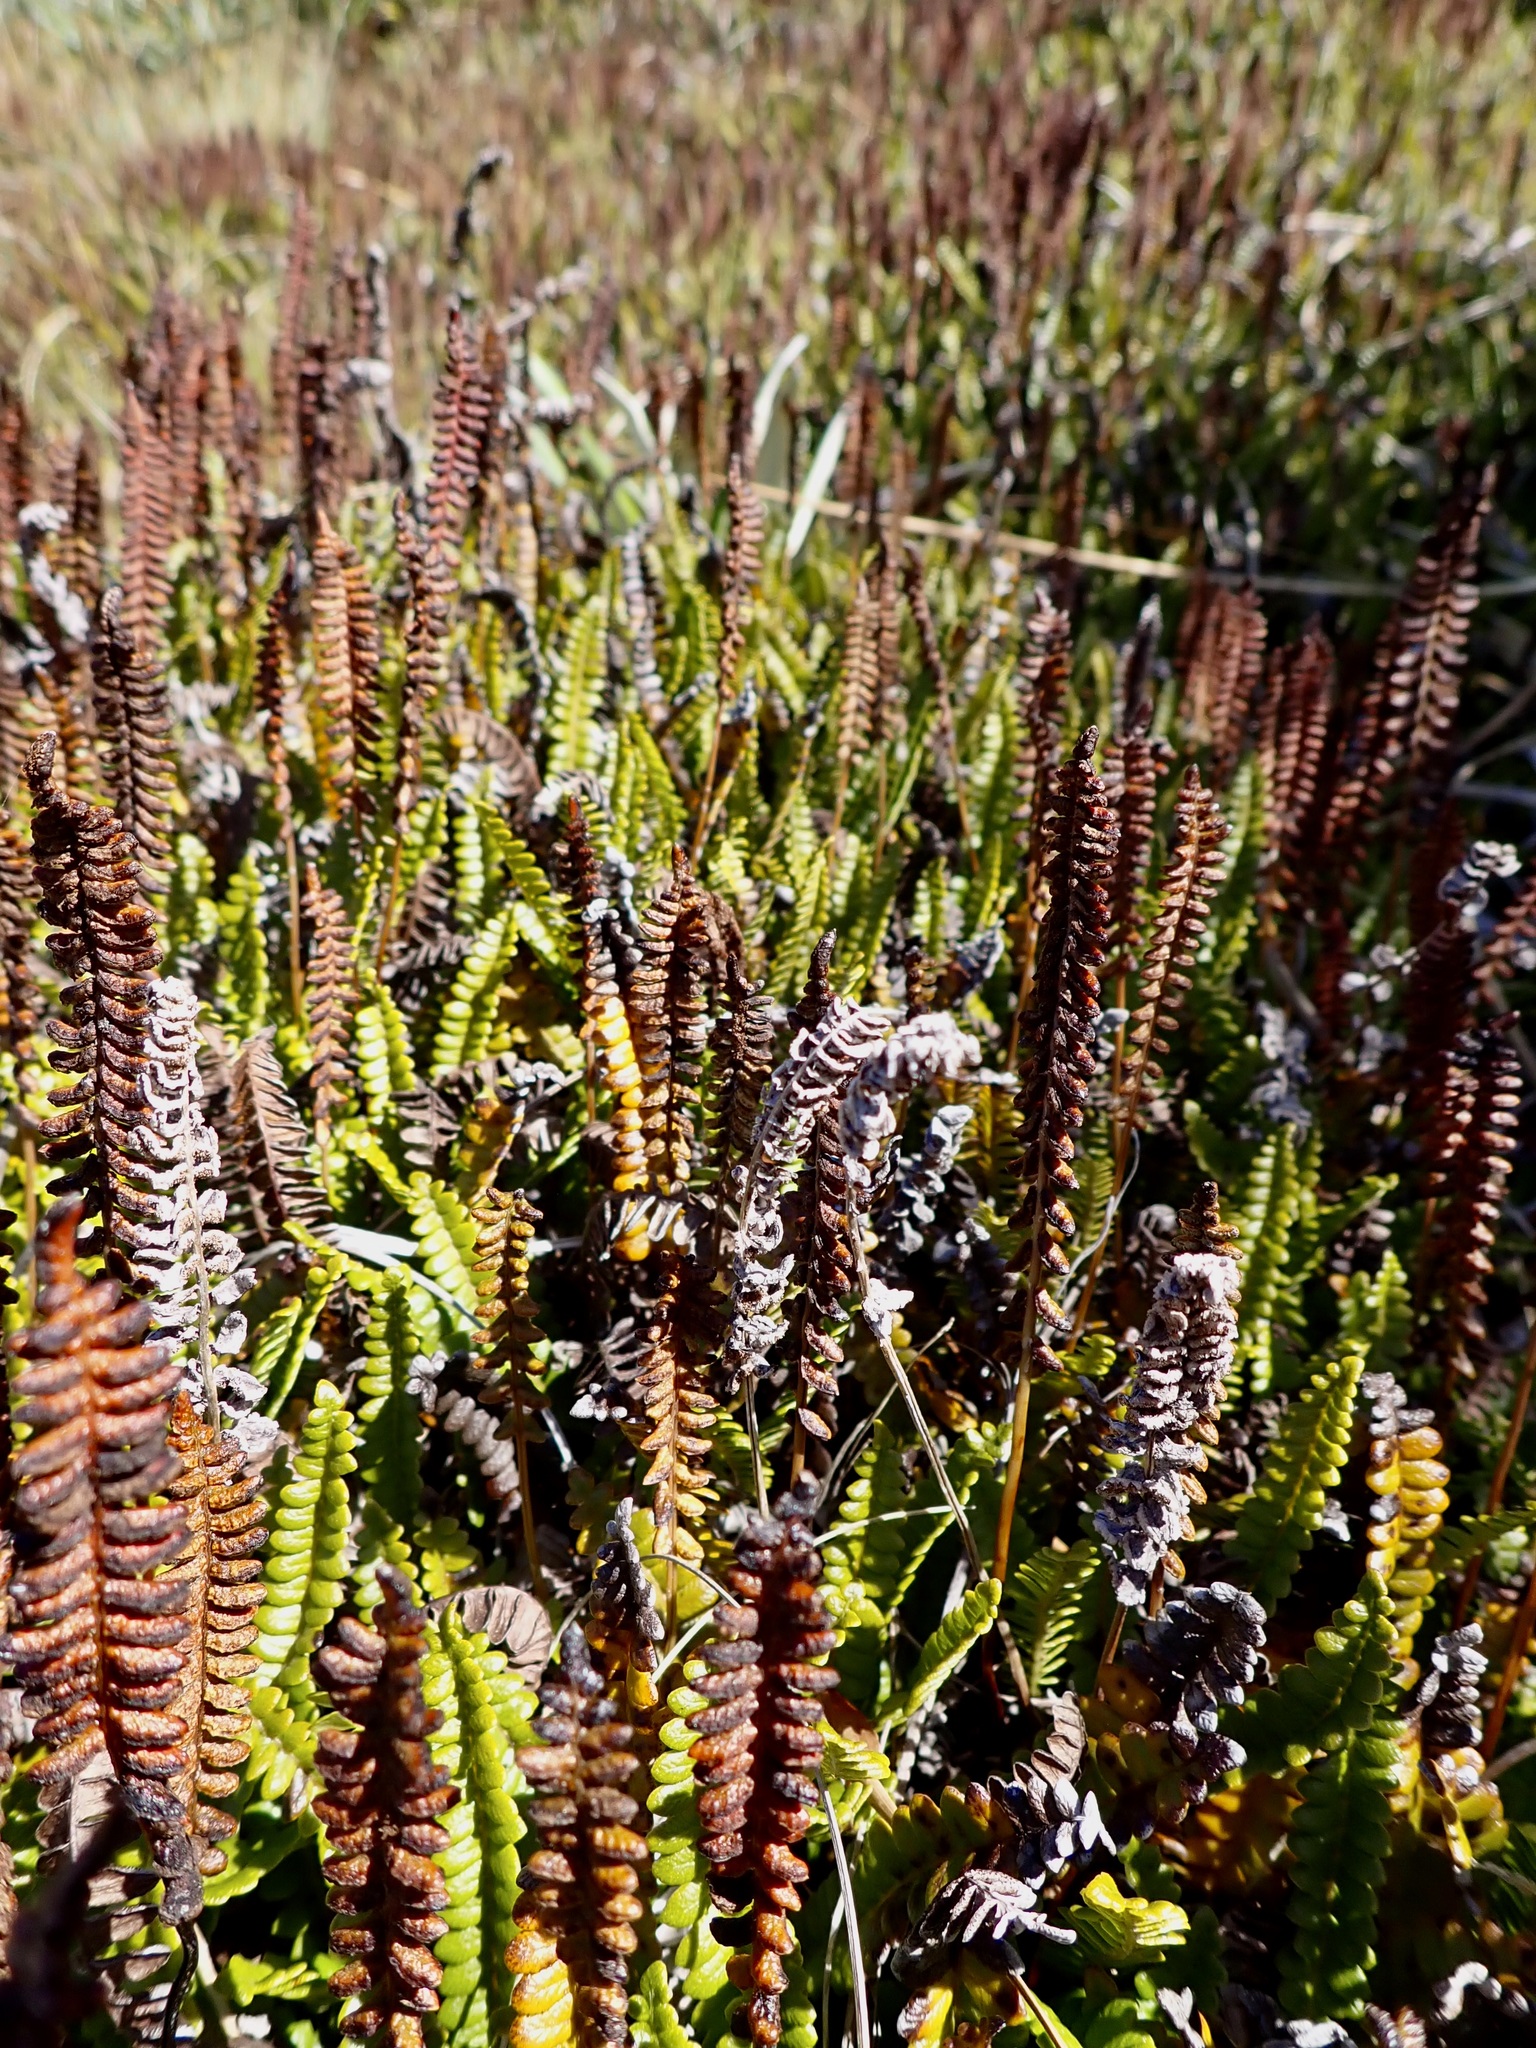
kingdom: Plantae
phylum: Tracheophyta
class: Polypodiopsida
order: Polypodiales
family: Blechnaceae
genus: Austroblechnum
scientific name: Austroblechnum penna-marina
